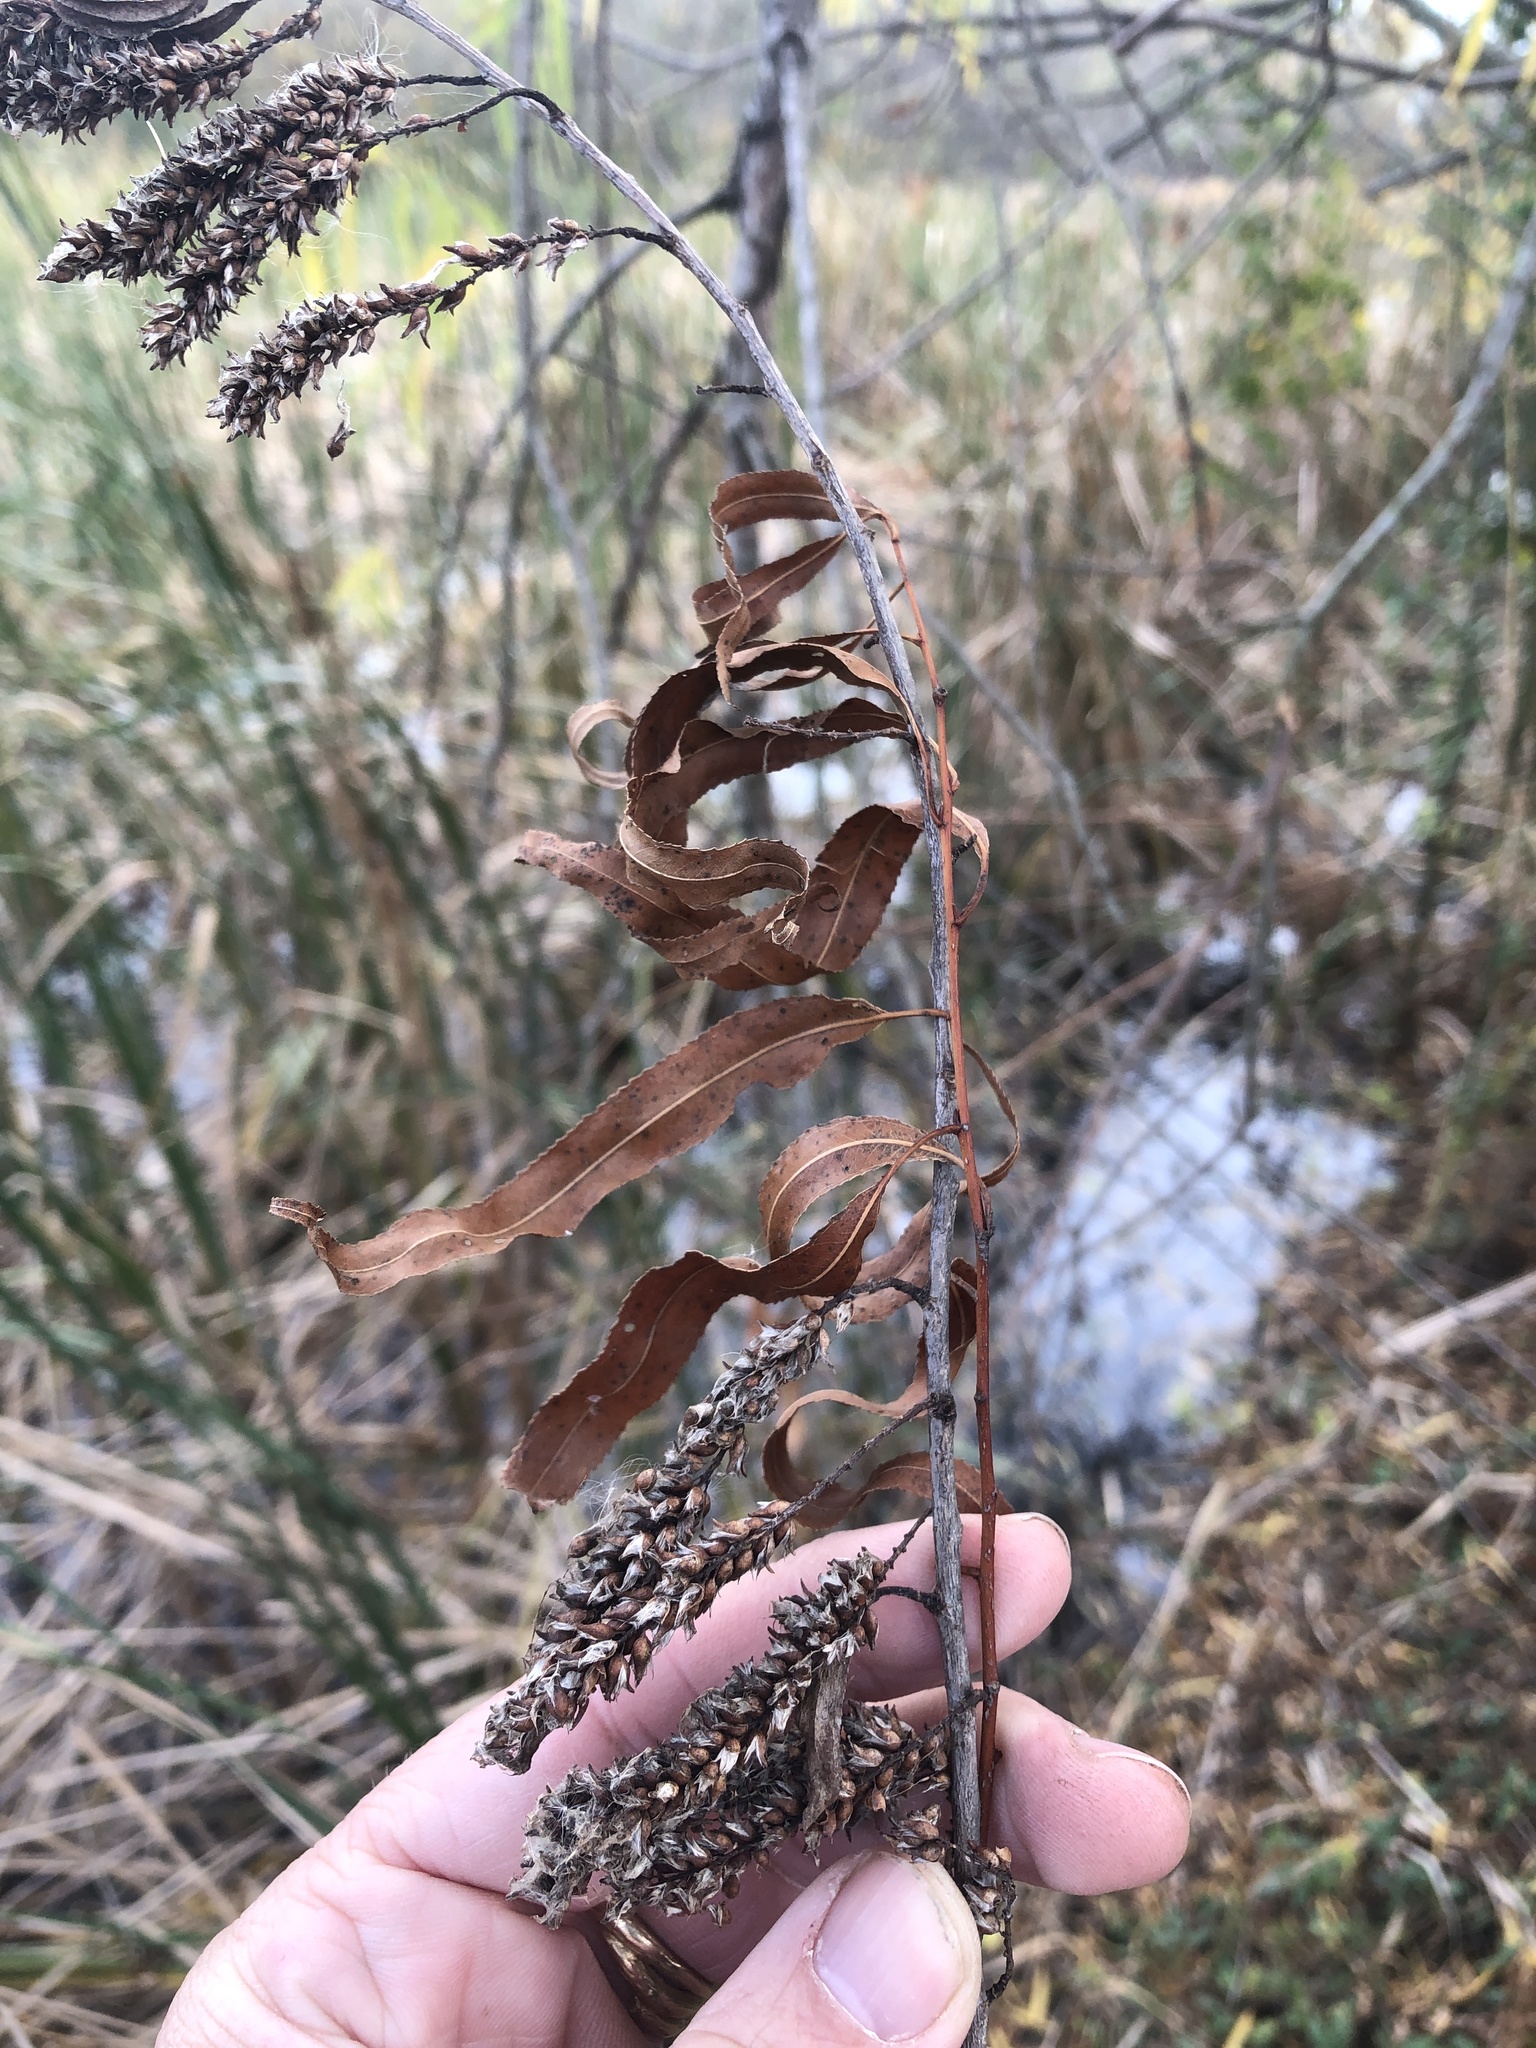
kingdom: Plantae
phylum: Tracheophyta
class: Magnoliopsida
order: Malpighiales
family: Salicaceae
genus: Salix
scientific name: Salix nigra
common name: Black willow
